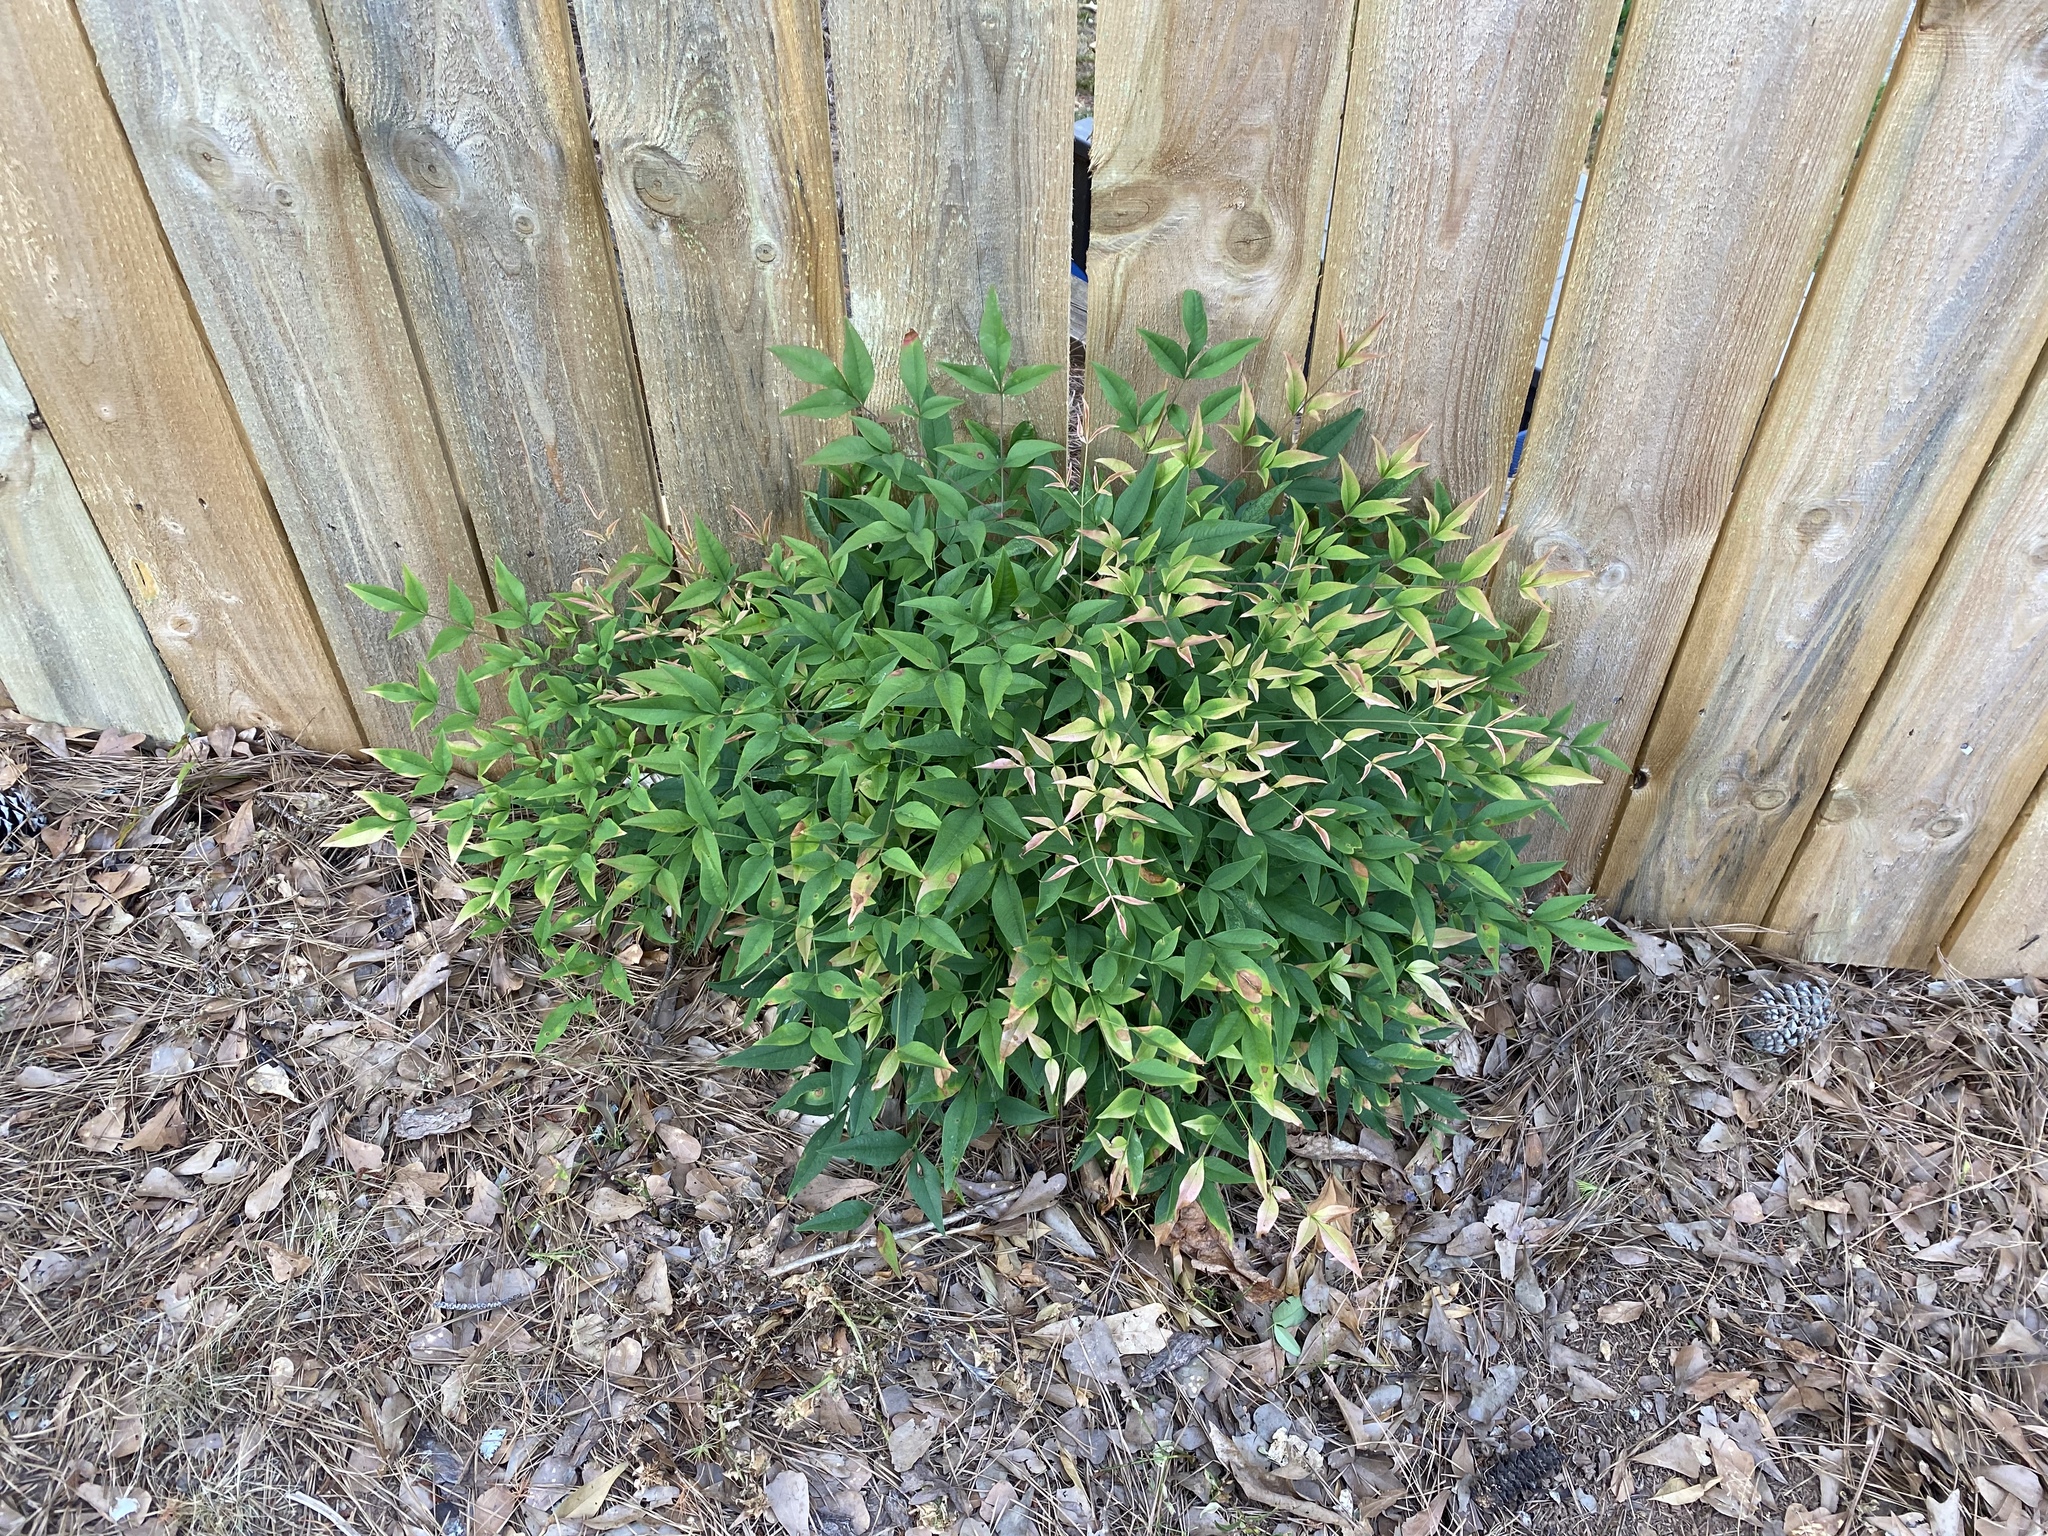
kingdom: Plantae
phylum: Tracheophyta
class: Magnoliopsida
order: Ranunculales
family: Berberidaceae
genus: Nandina
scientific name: Nandina domestica
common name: Sacred bamboo
